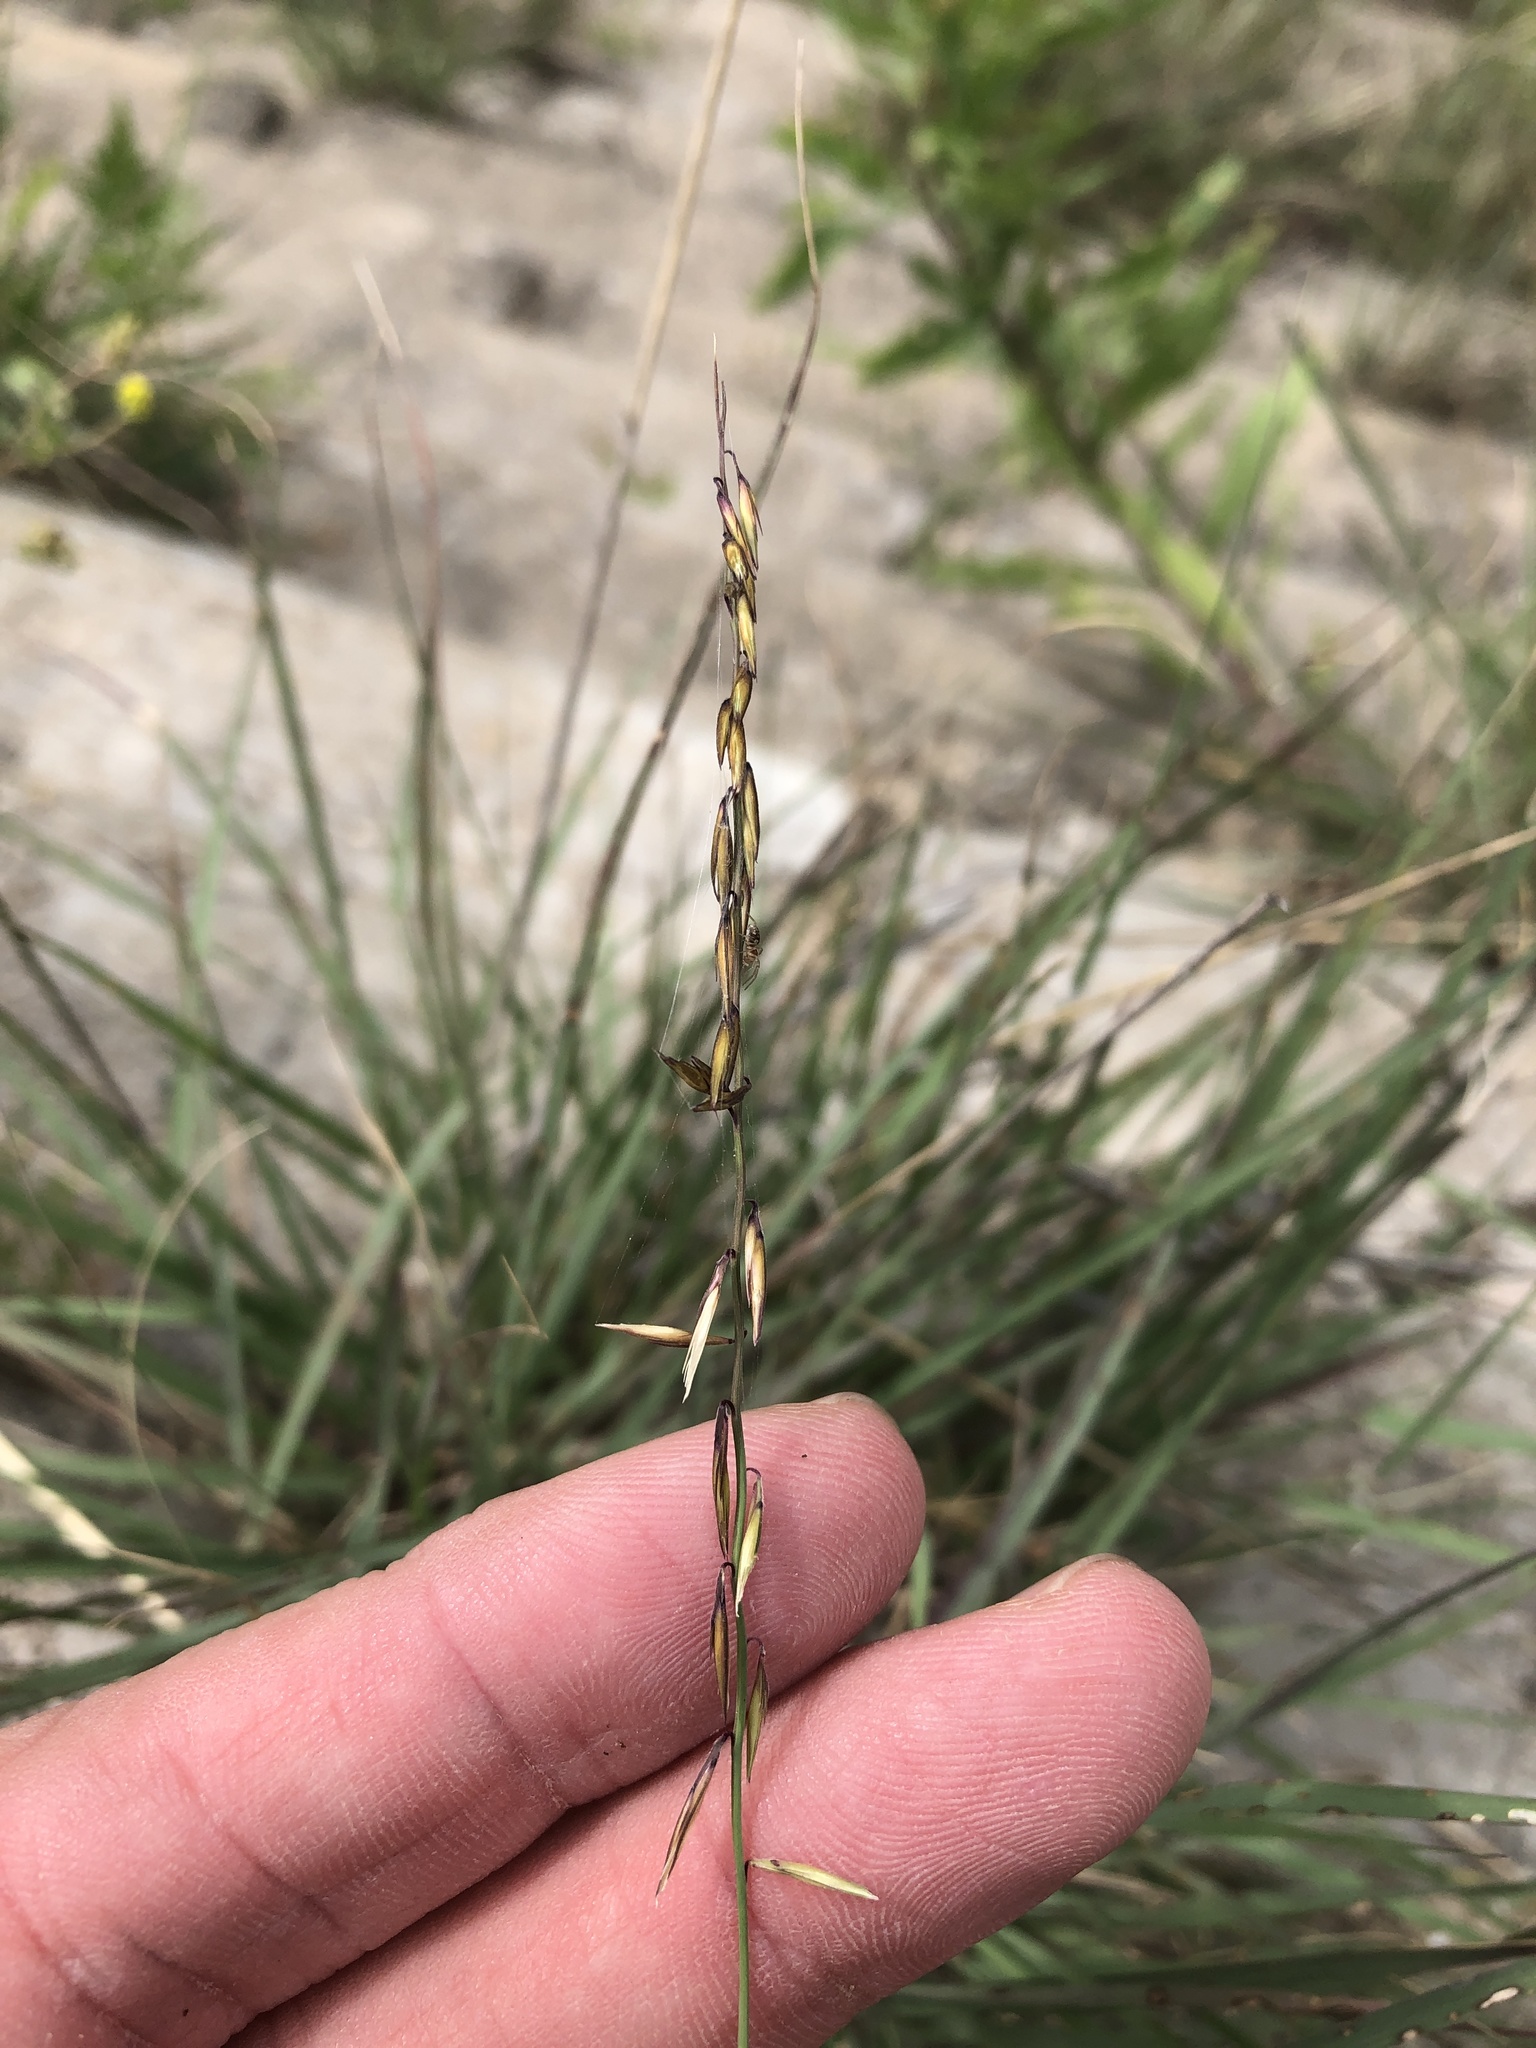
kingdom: Plantae
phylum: Tracheophyta
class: Liliopsida
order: Poales
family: Poaceae
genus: Bouteloua
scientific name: Bouteloua curtipendula
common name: Side-oats grama
